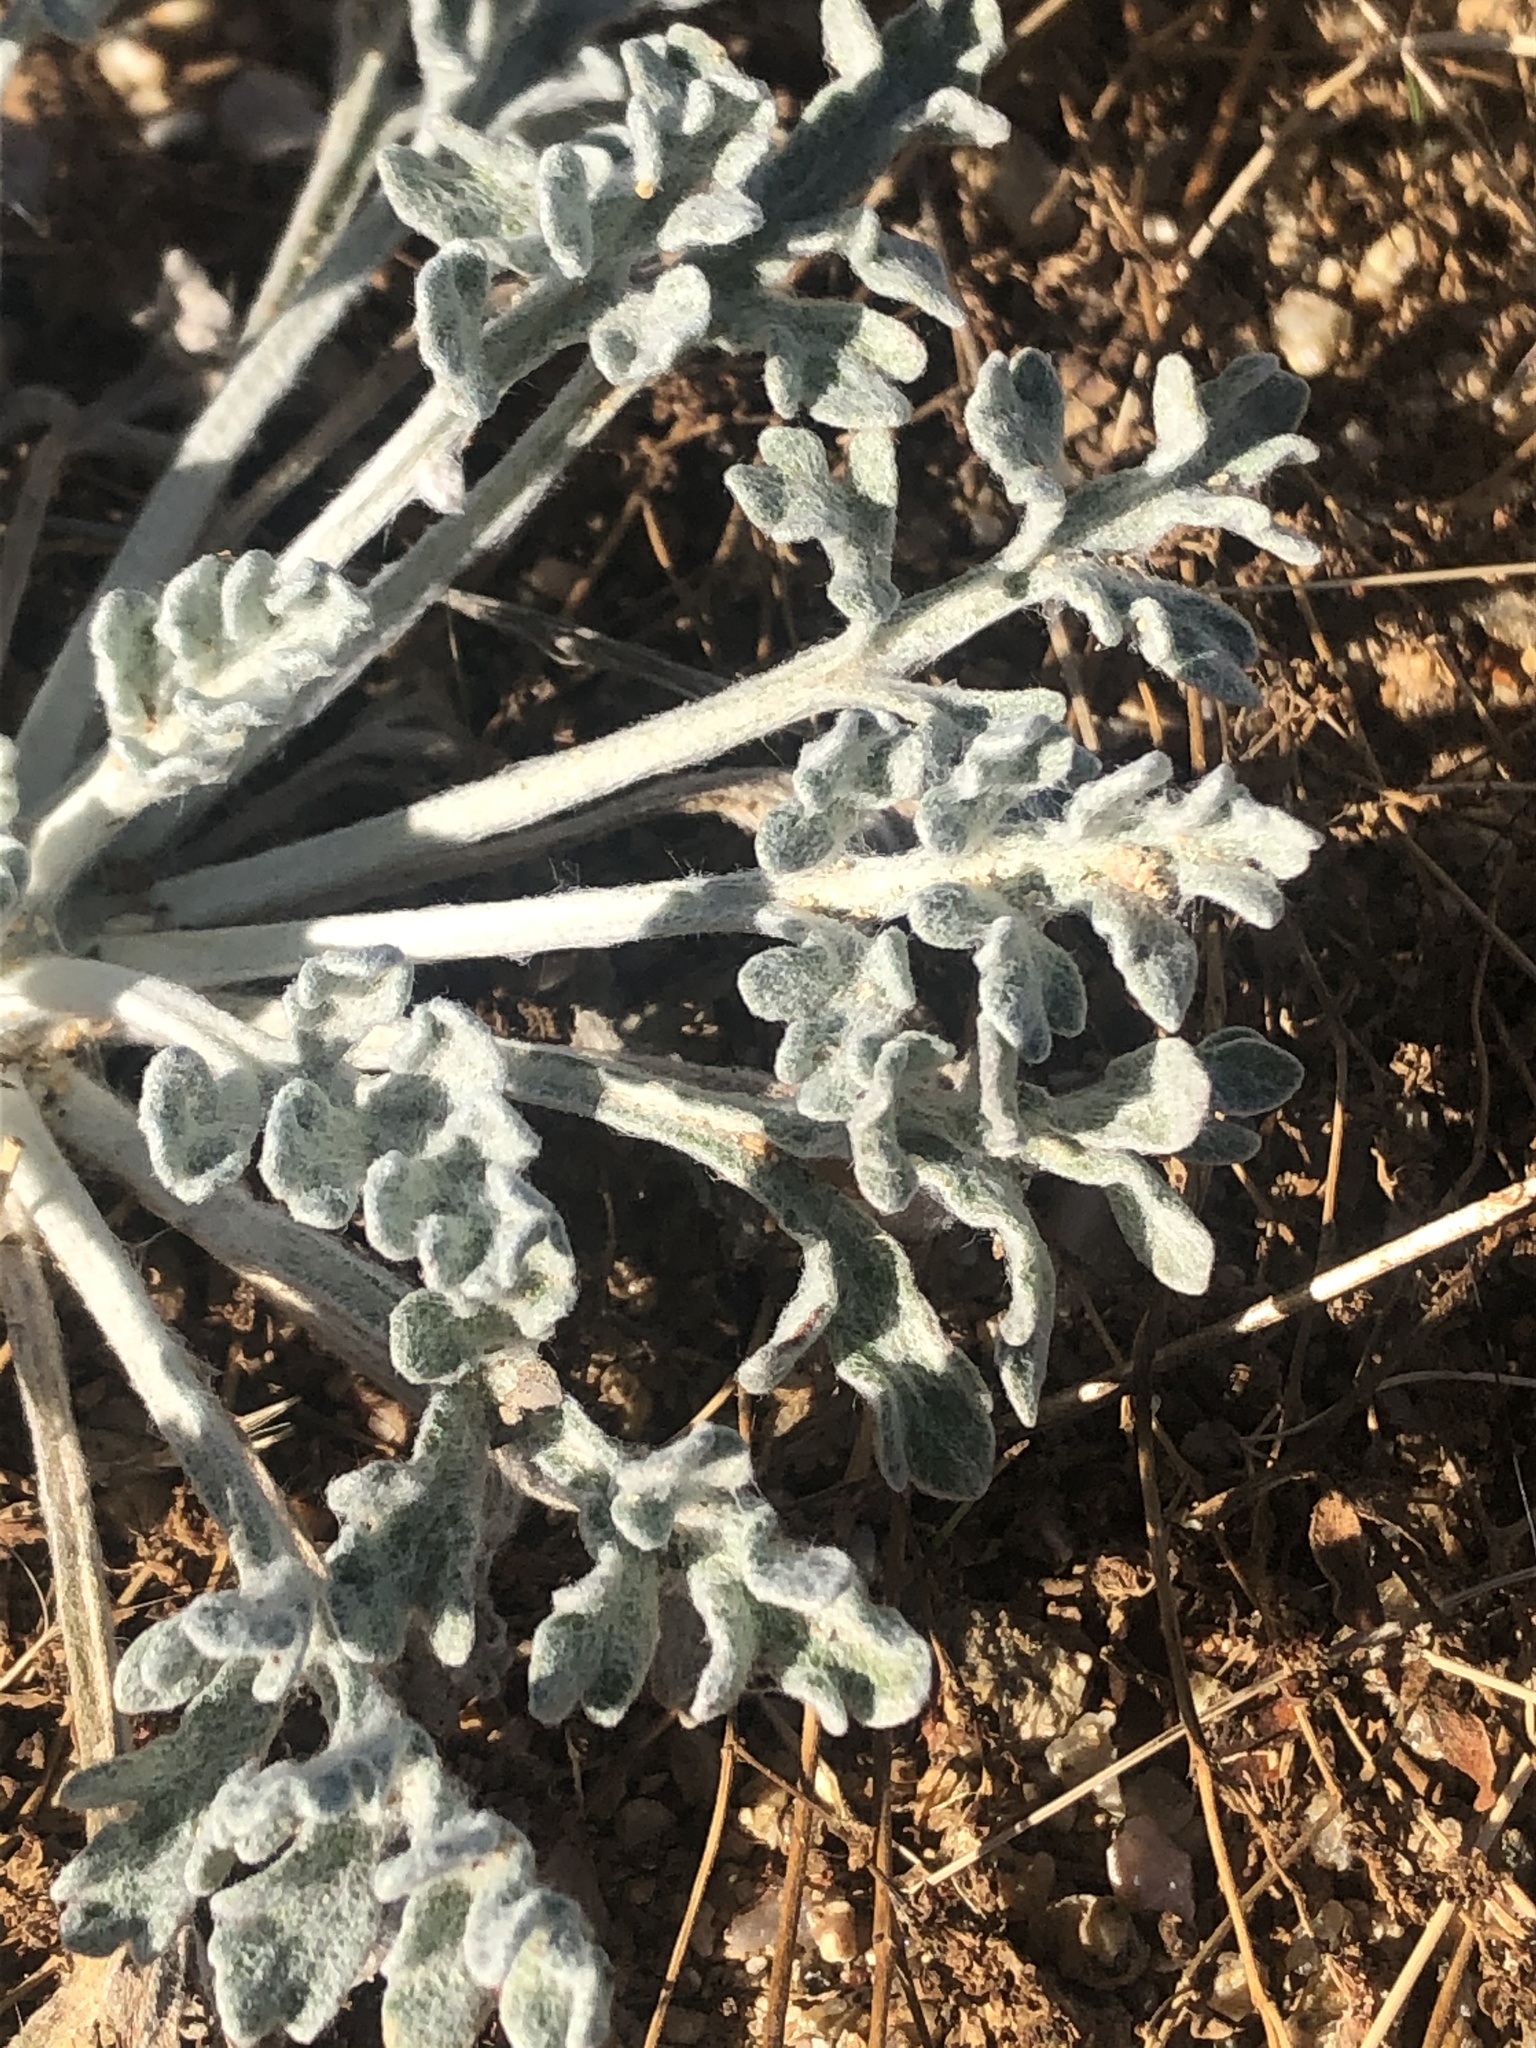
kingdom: Plantae
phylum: Tracheophyta
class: Magnoliopsida
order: Asterales
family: Asteraceae
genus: Baileya
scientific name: Baileya multiradiata
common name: Desert-marigold
